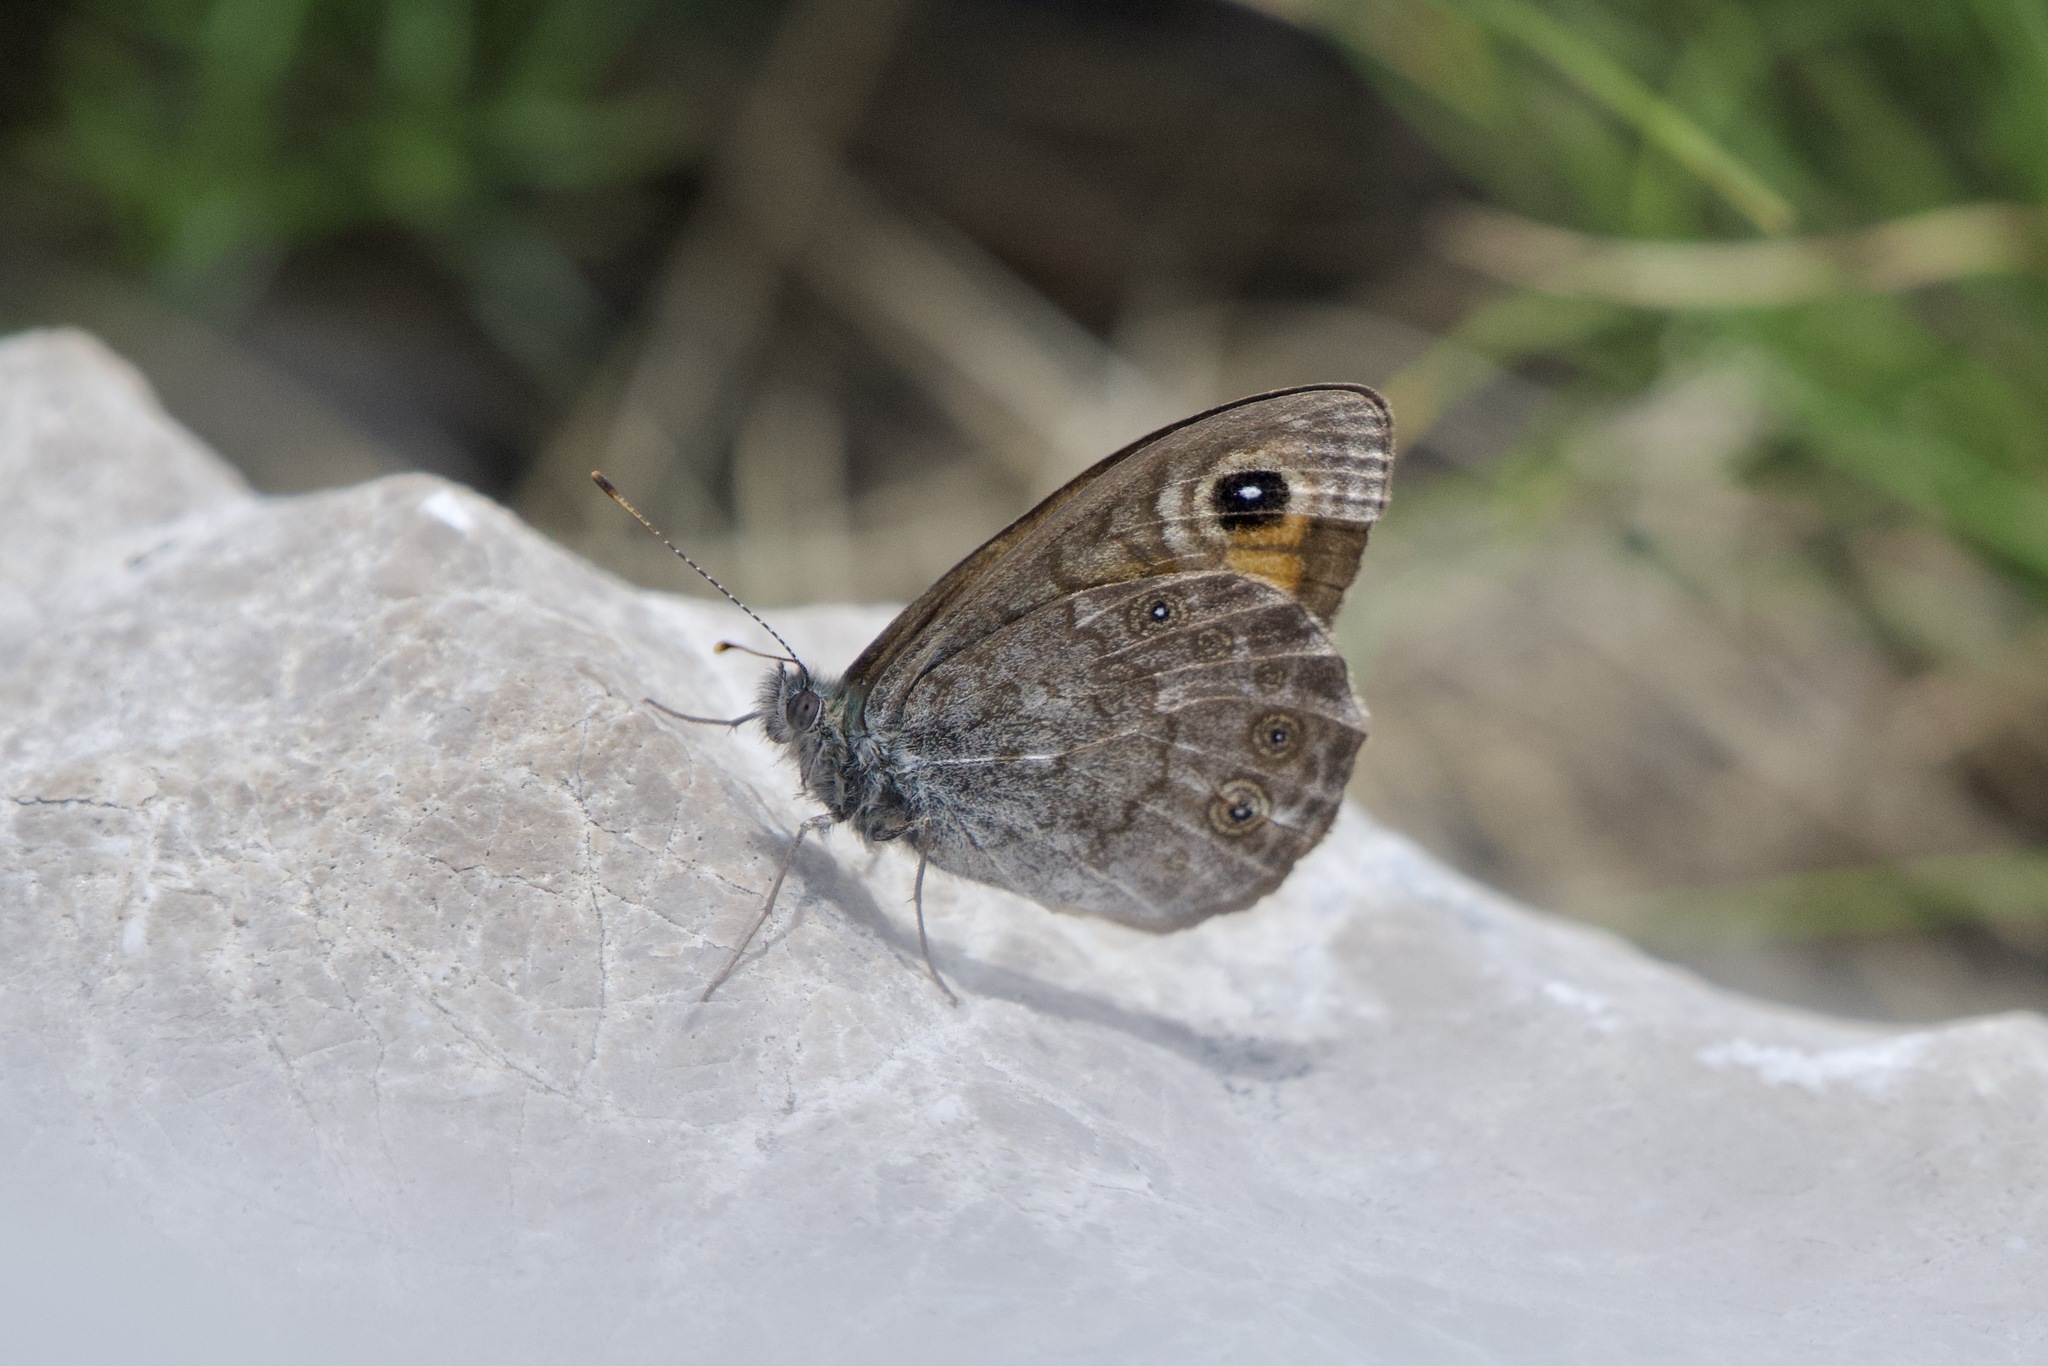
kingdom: Animalia
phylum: Arthropoda
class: Insecta
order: Lepidoptera
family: Nymphalidae
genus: Pararge
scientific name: Pararge Lasiommata maera
